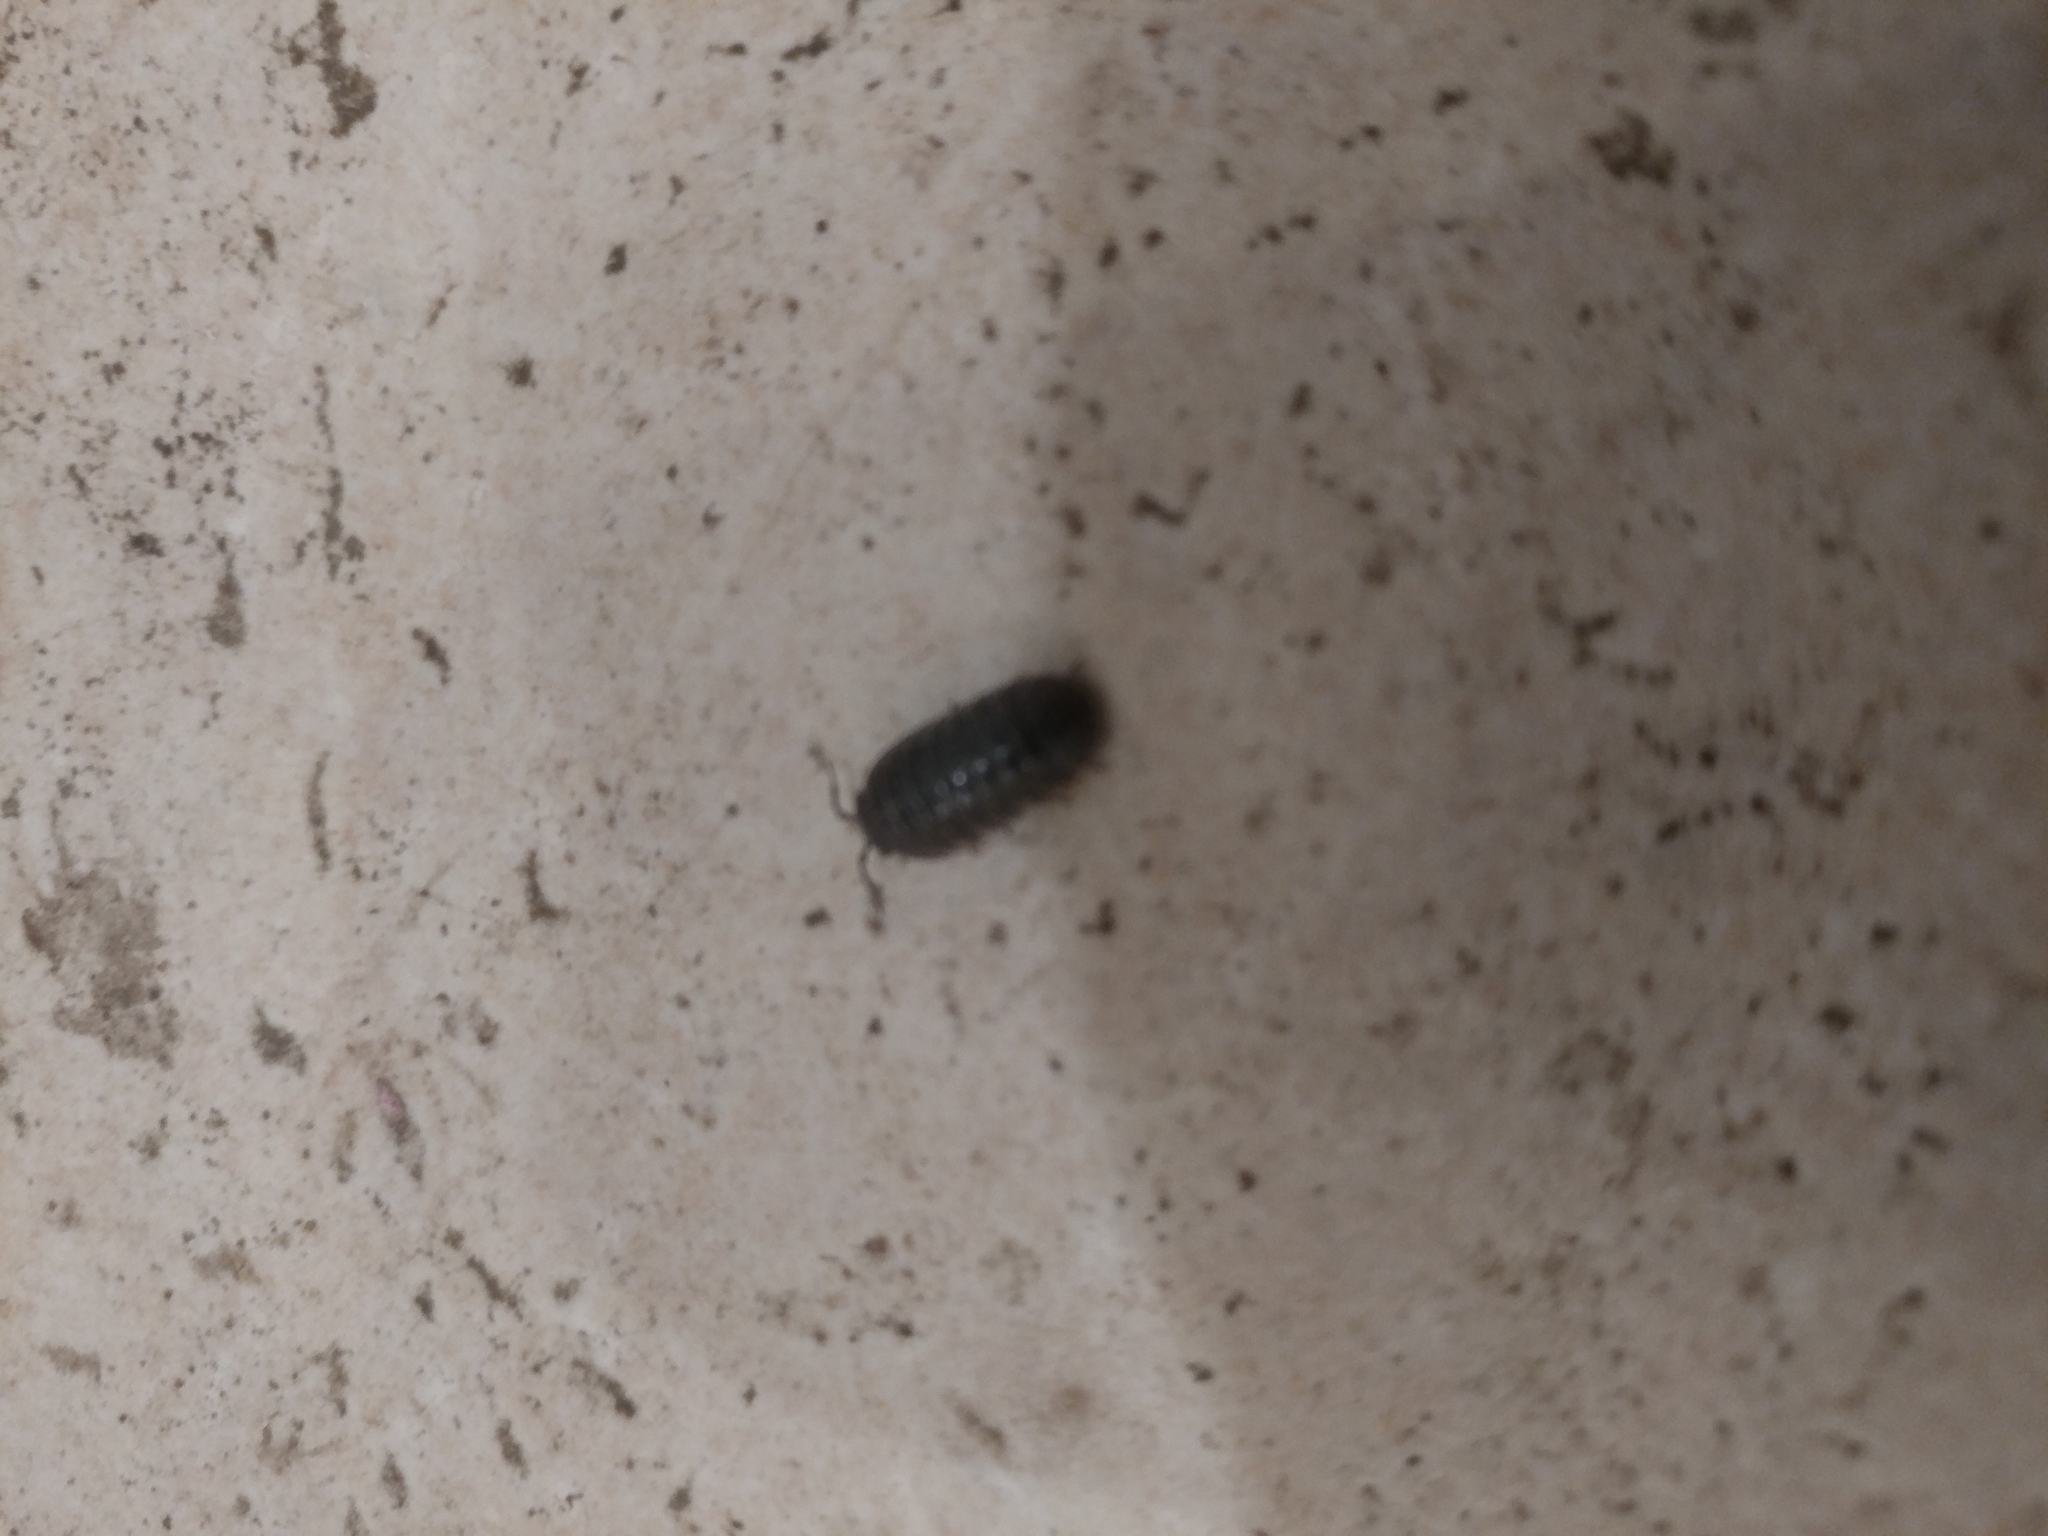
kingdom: Animalia
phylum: Arthropoda
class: Malacostraca
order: Isopoda
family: Armadillidiidae
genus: Armadillidium
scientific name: Armadillidium vulgare
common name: Common pill woodlouse
